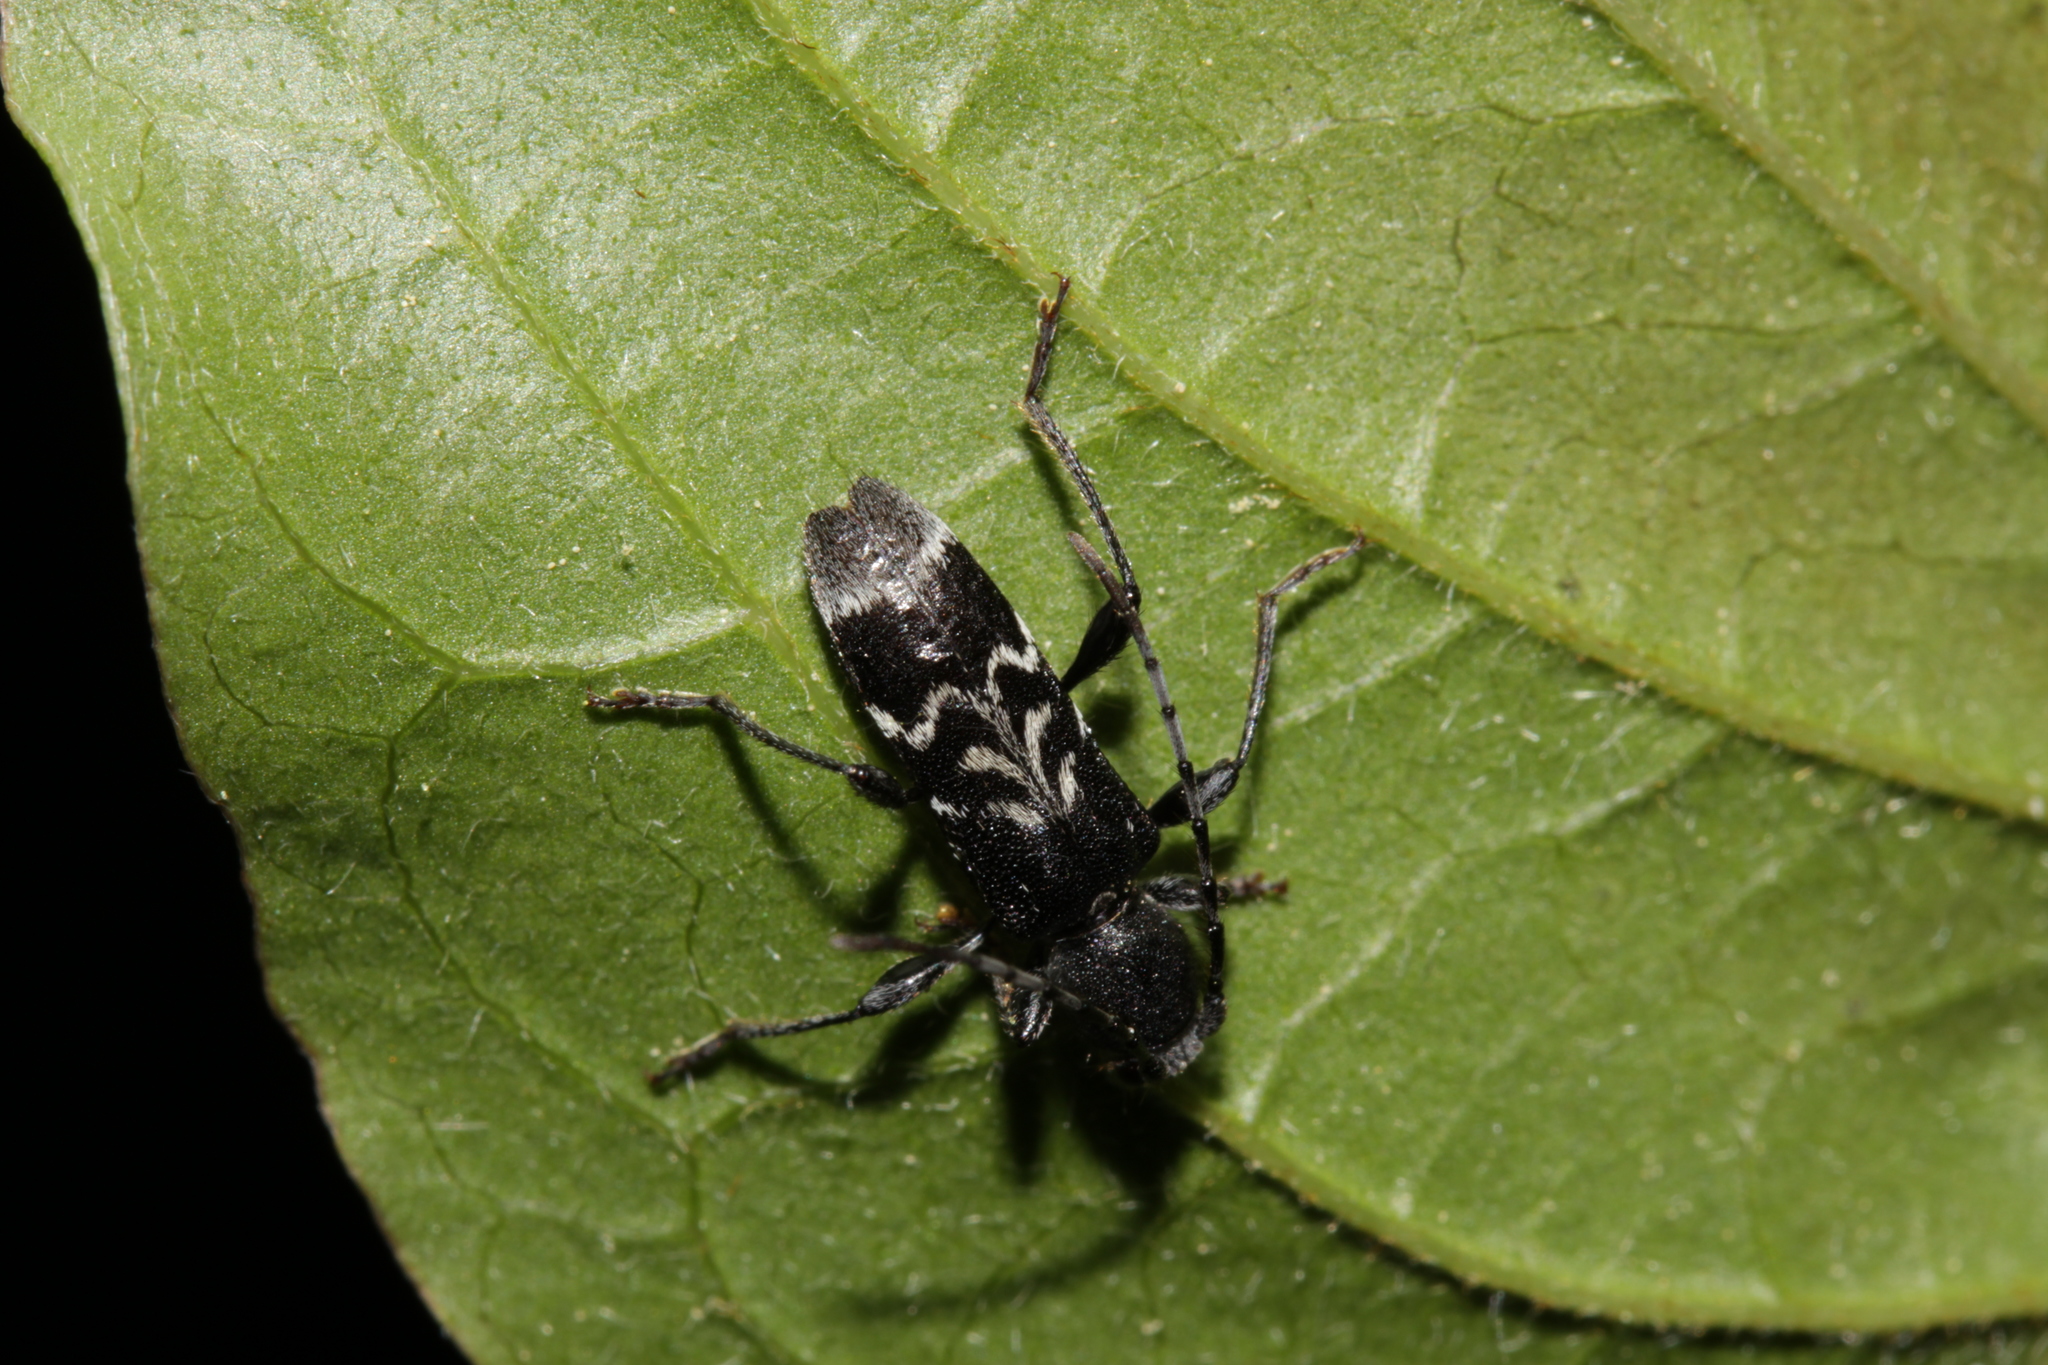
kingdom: Animalia
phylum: Arthropoda
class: Insecta
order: Coleoptera
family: Cerambycidae
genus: Anaglyptus
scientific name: Anaglyptus mysticus
